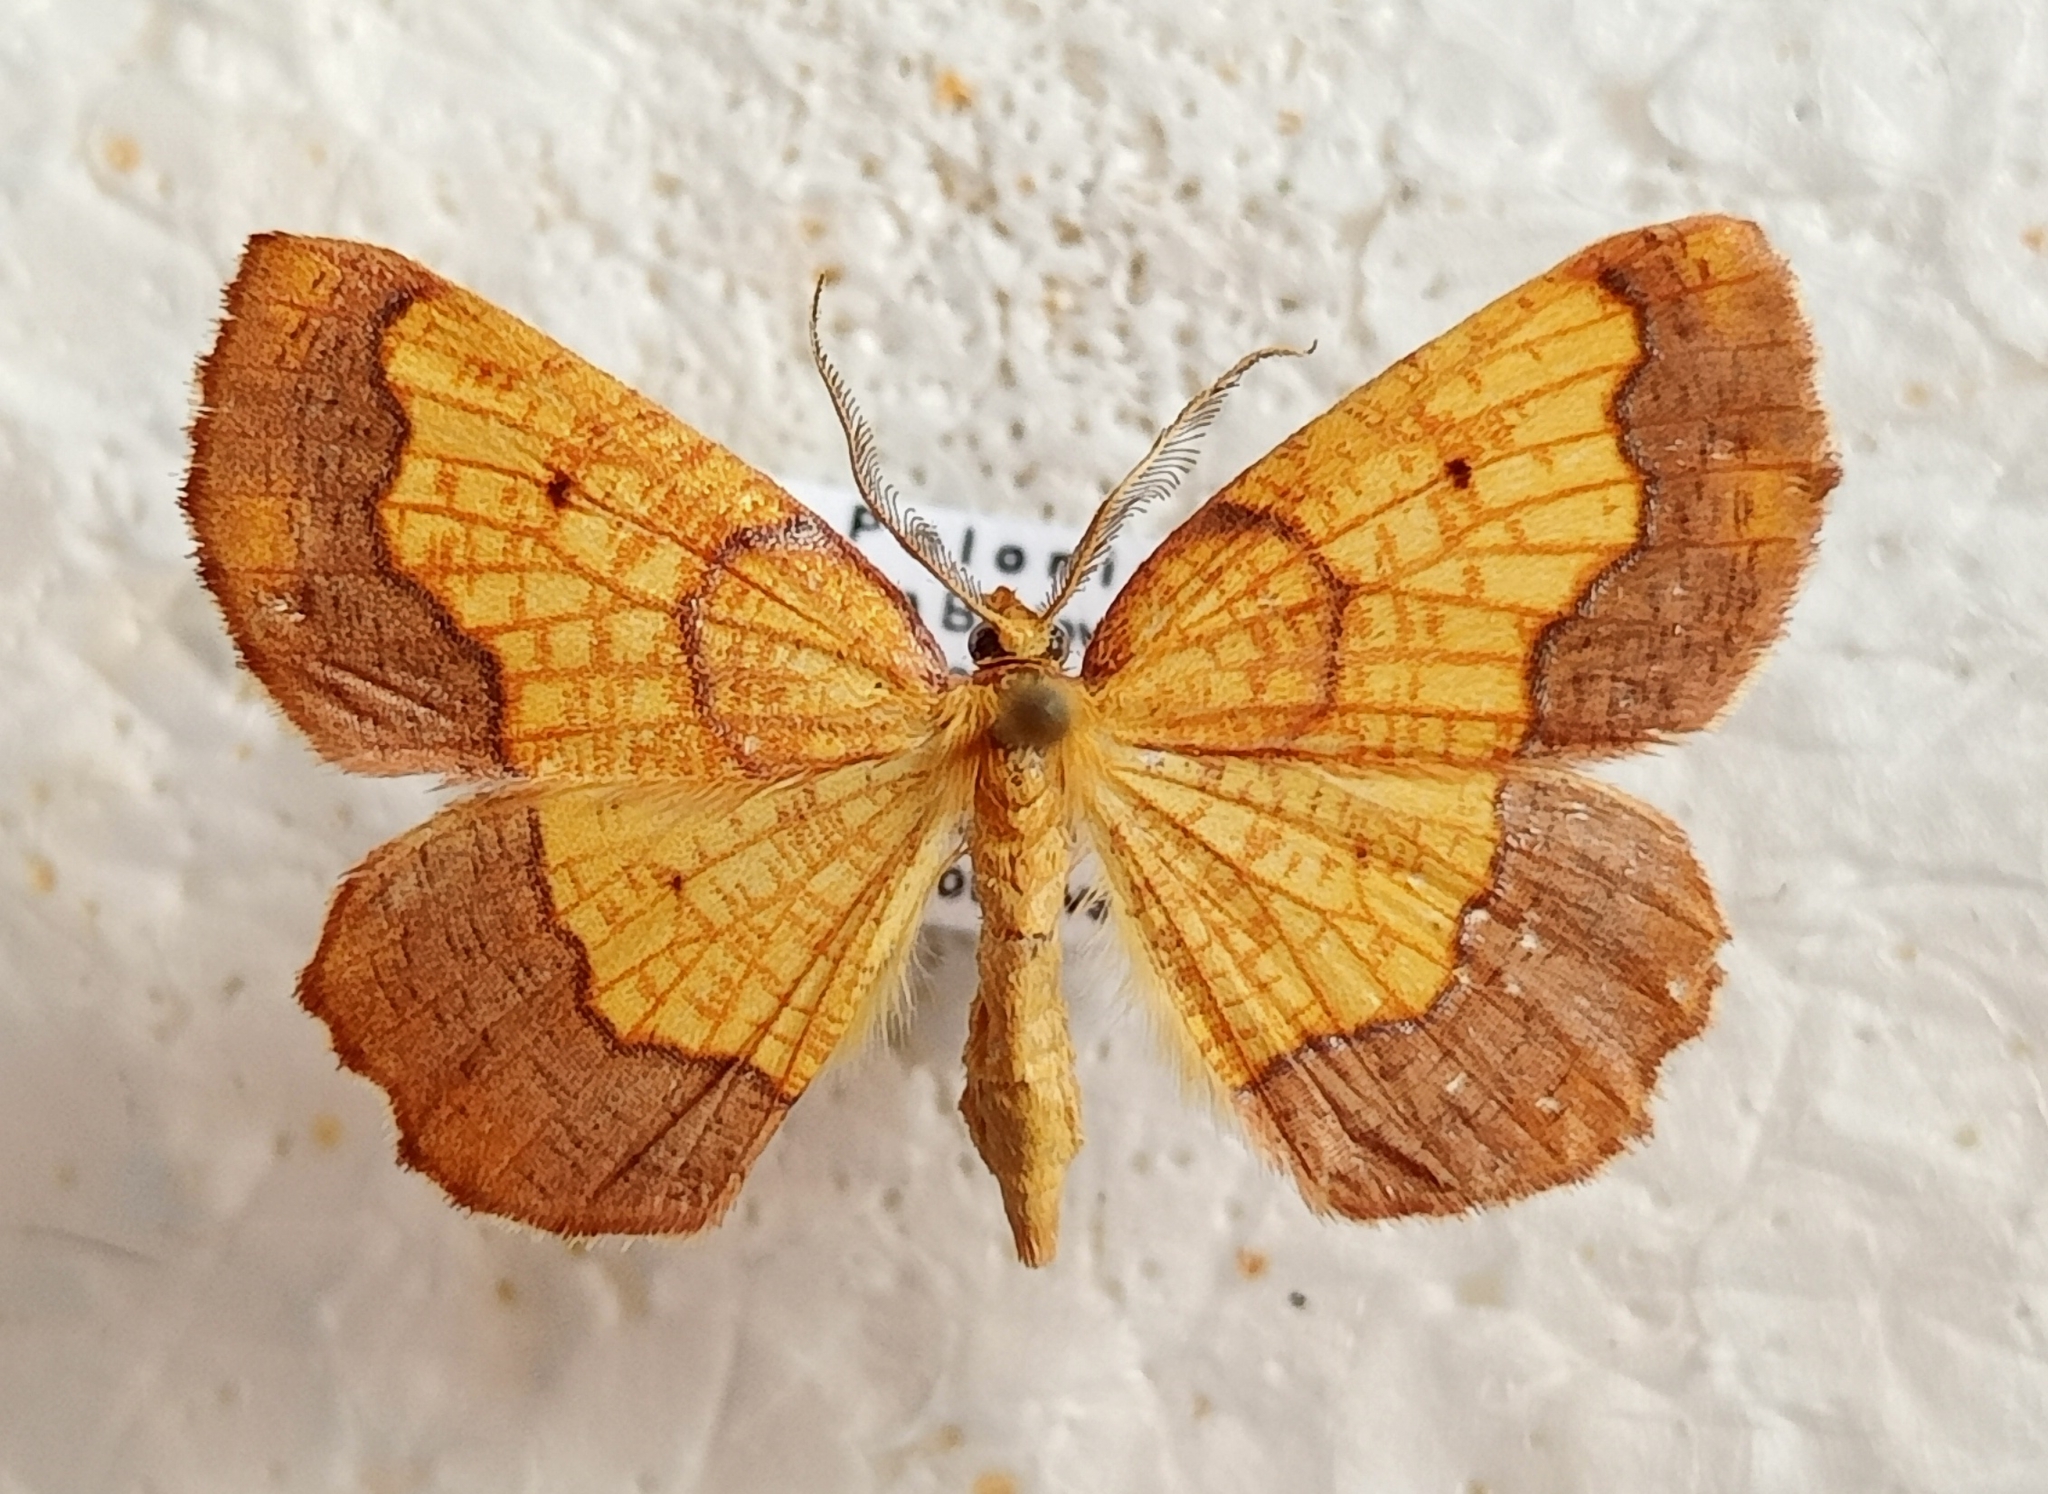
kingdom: Animalia
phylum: Arthropoda
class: Insecta
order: Lepidoptera
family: Geometridae
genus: Epione
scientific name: Epione vespertaria
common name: Dark bordered beauty
